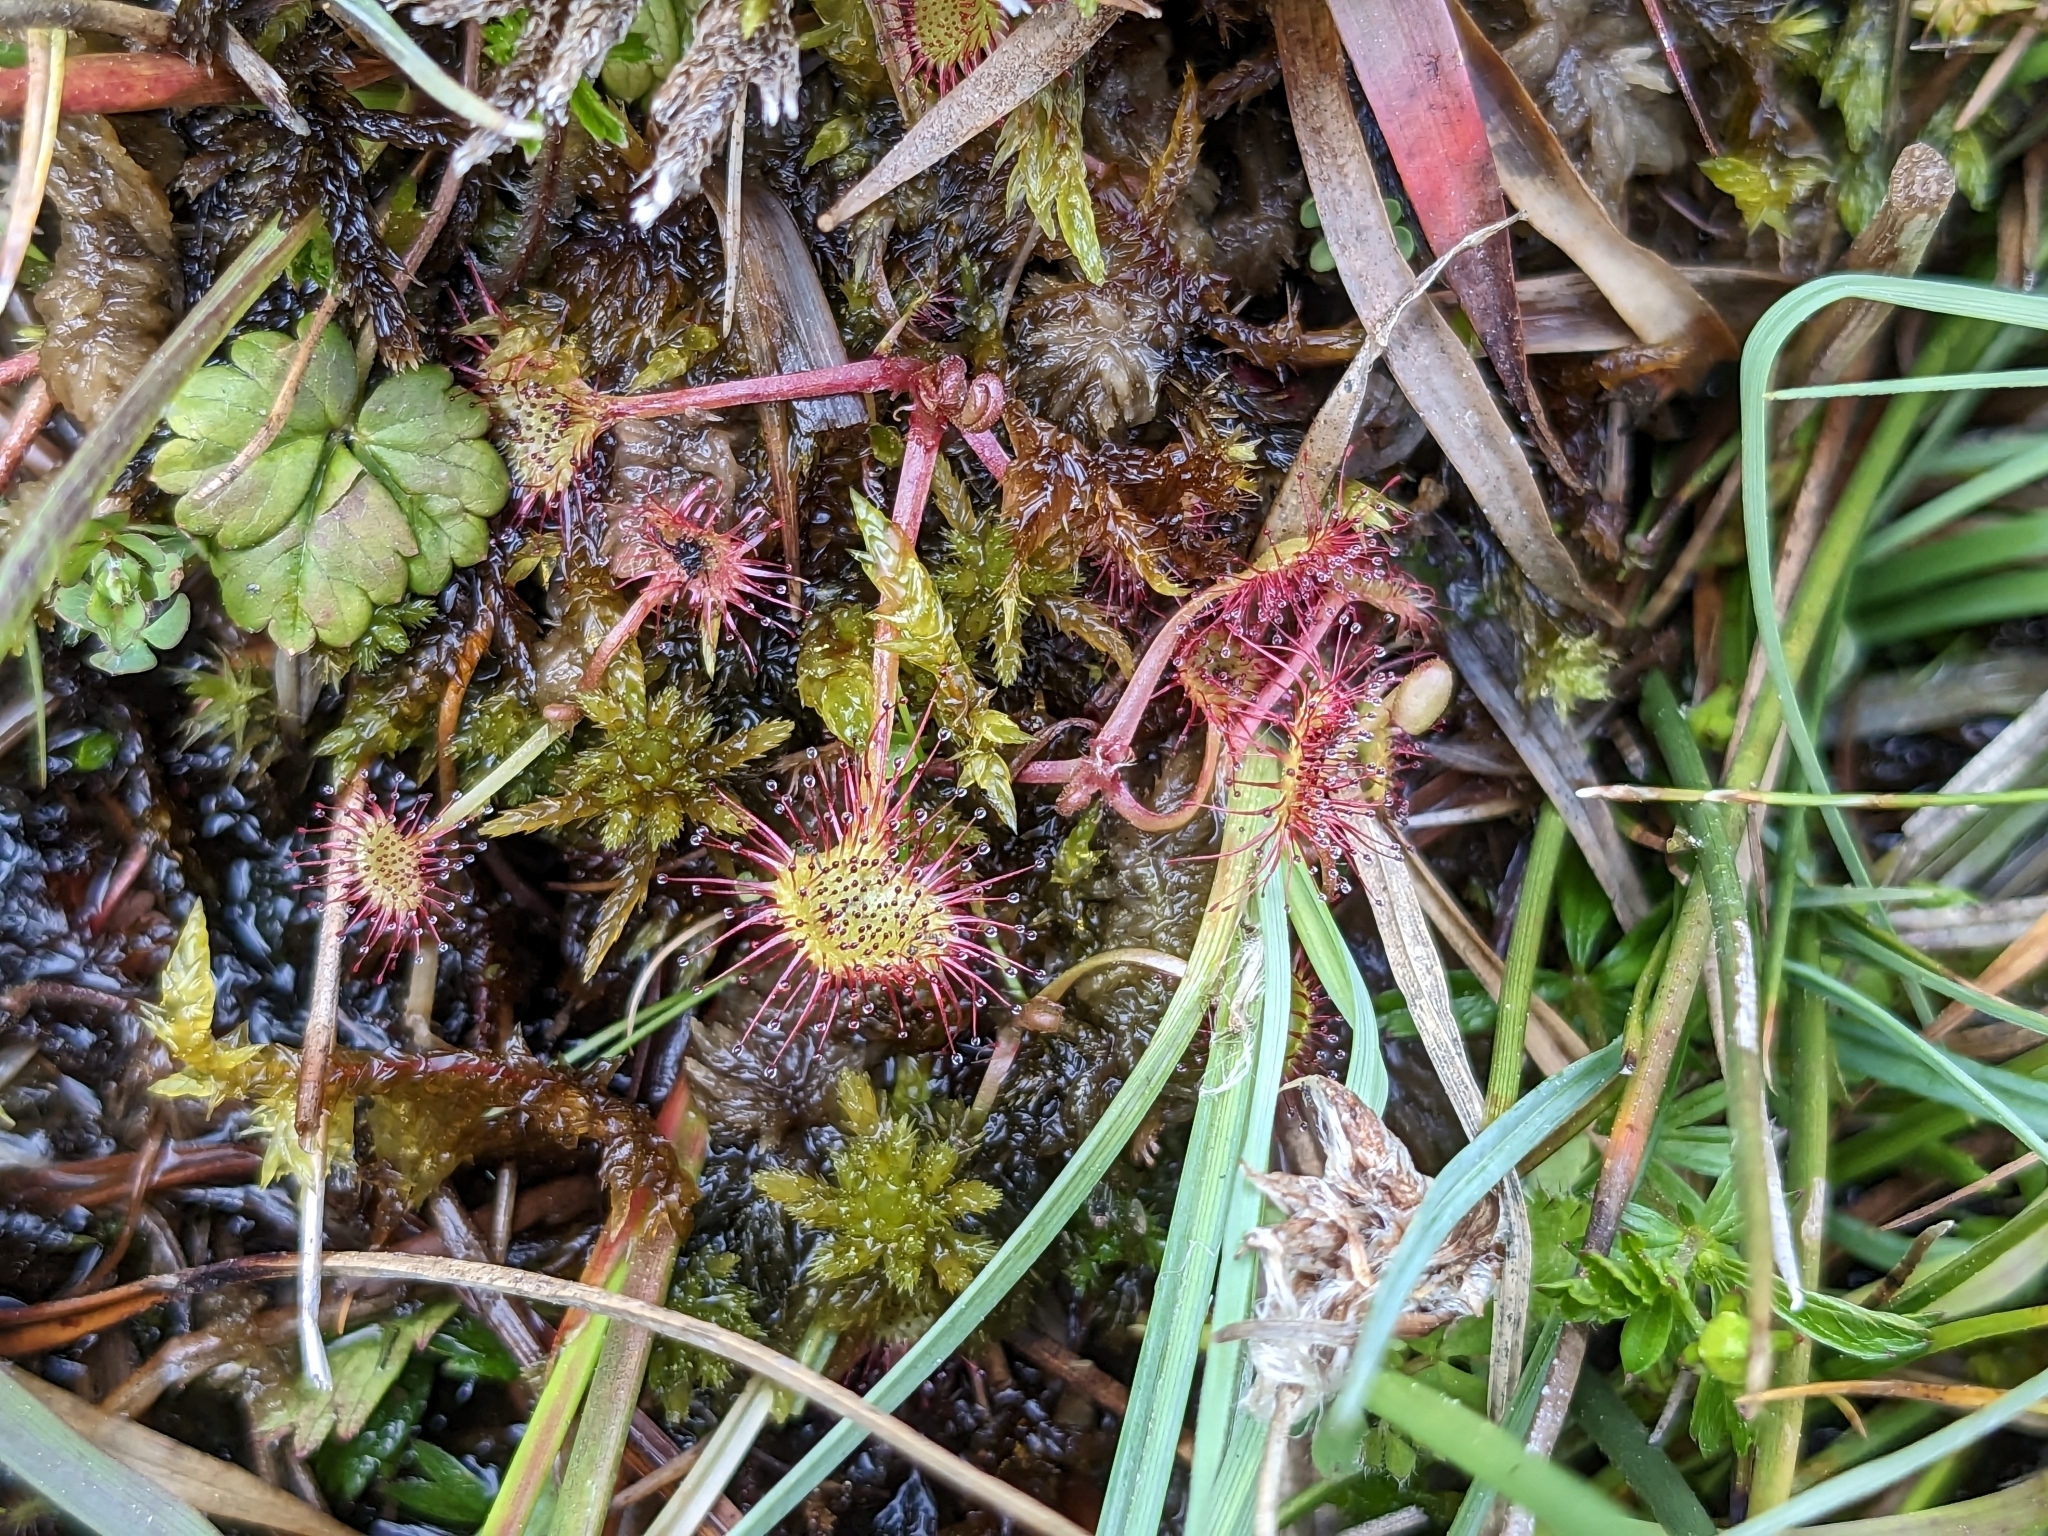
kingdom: Plantae
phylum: Tracheophyta
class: Magnoliopsida
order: Caryophyllales
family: Droseraceae
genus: Drosera
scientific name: Drosera rotundifolia
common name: Round-leaved sundew
